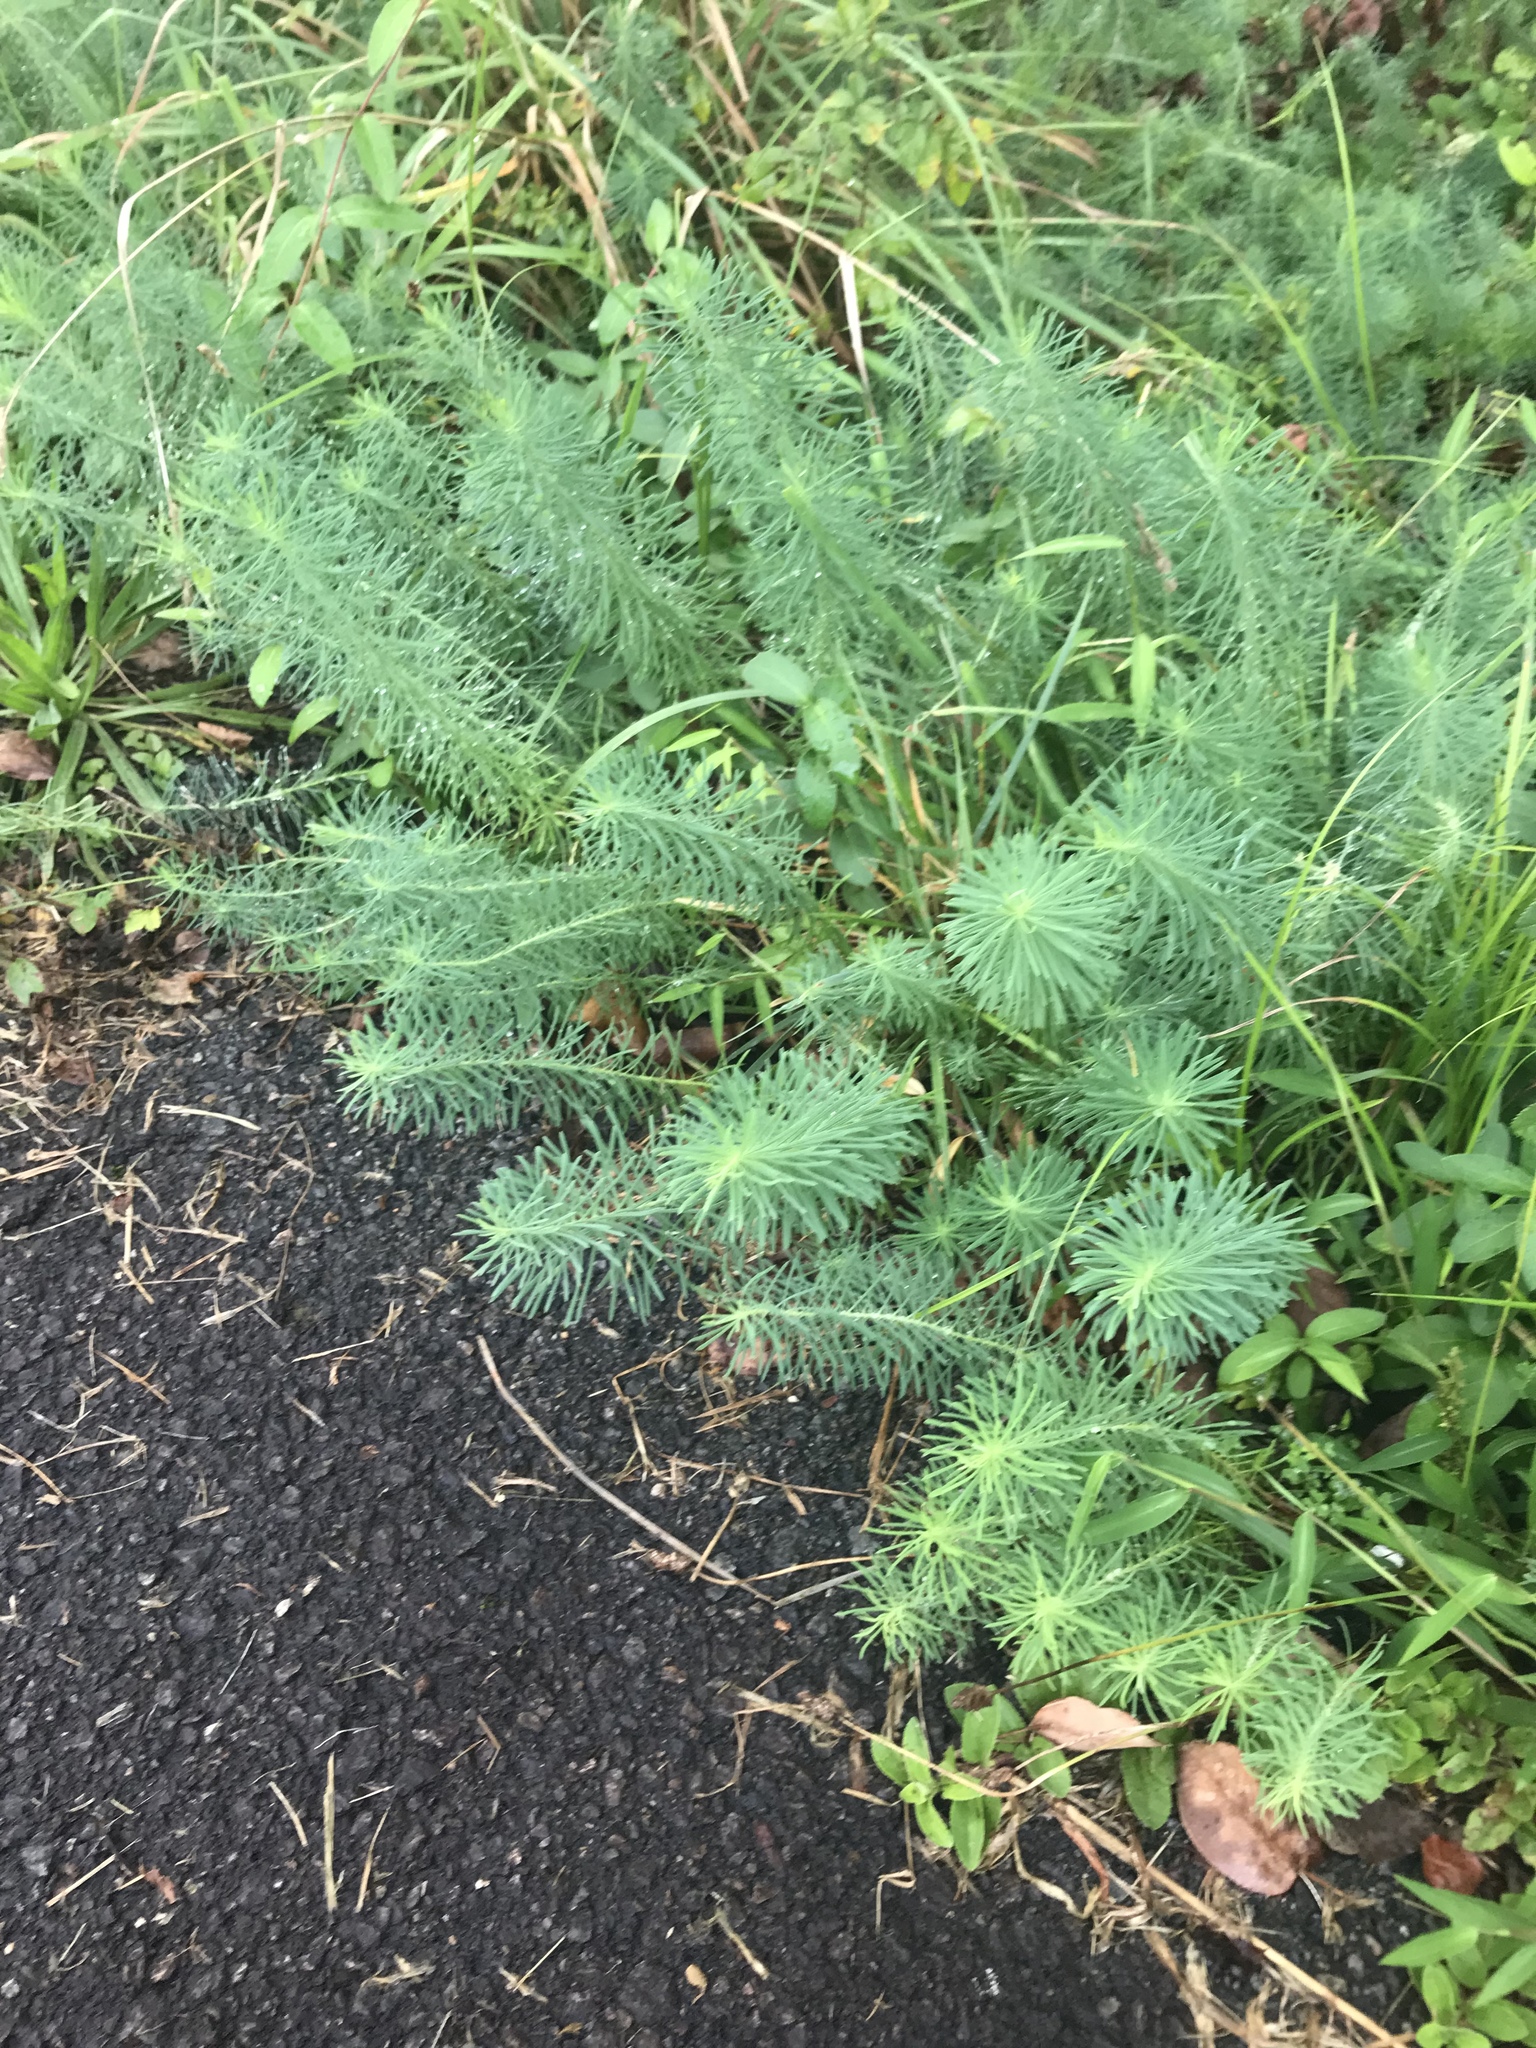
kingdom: Plantae
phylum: Tracheophyta
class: Magnoliopsida
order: Malpighiales
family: Euphorbiaceae
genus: Euphorbia
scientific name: Euphorbia cyparissias
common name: Cypress spurge
